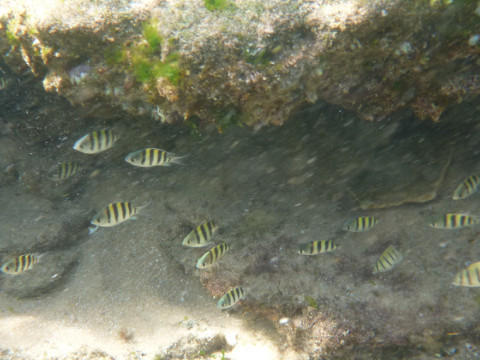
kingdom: Animalia
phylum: Chordata
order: Perciformes
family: Pomacentridae
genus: Abudefduf
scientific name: Abudefduf vaigiensis
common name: Indo-pacific sergeant
